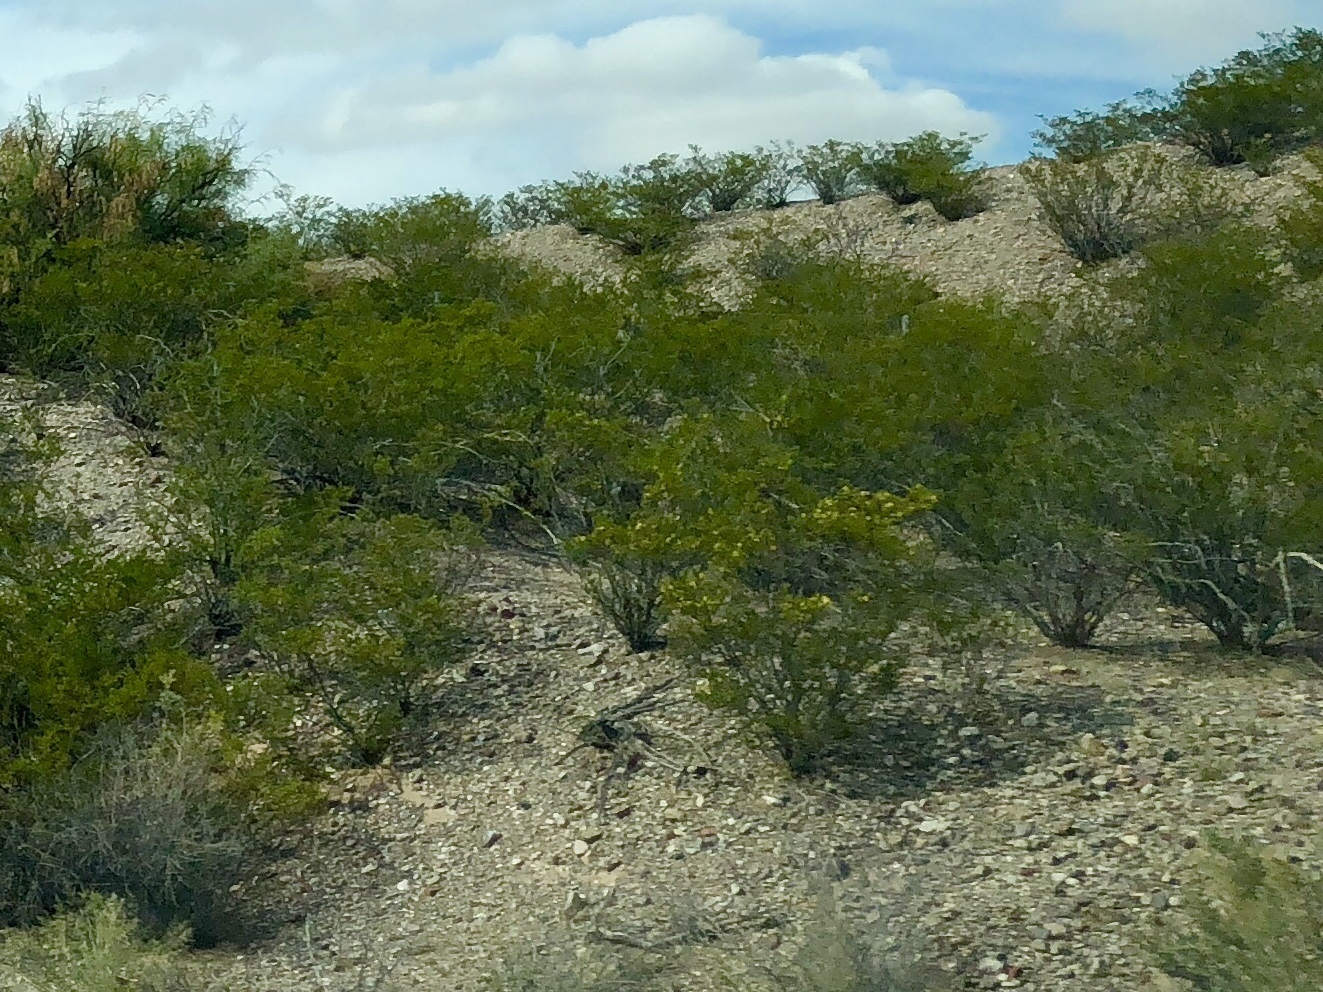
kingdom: Plantae
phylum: Tracheophyta
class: Magnoliopsida
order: Zygophyllales
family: Zygophyllaceae
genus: Larrea
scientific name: Larrea tridentata
